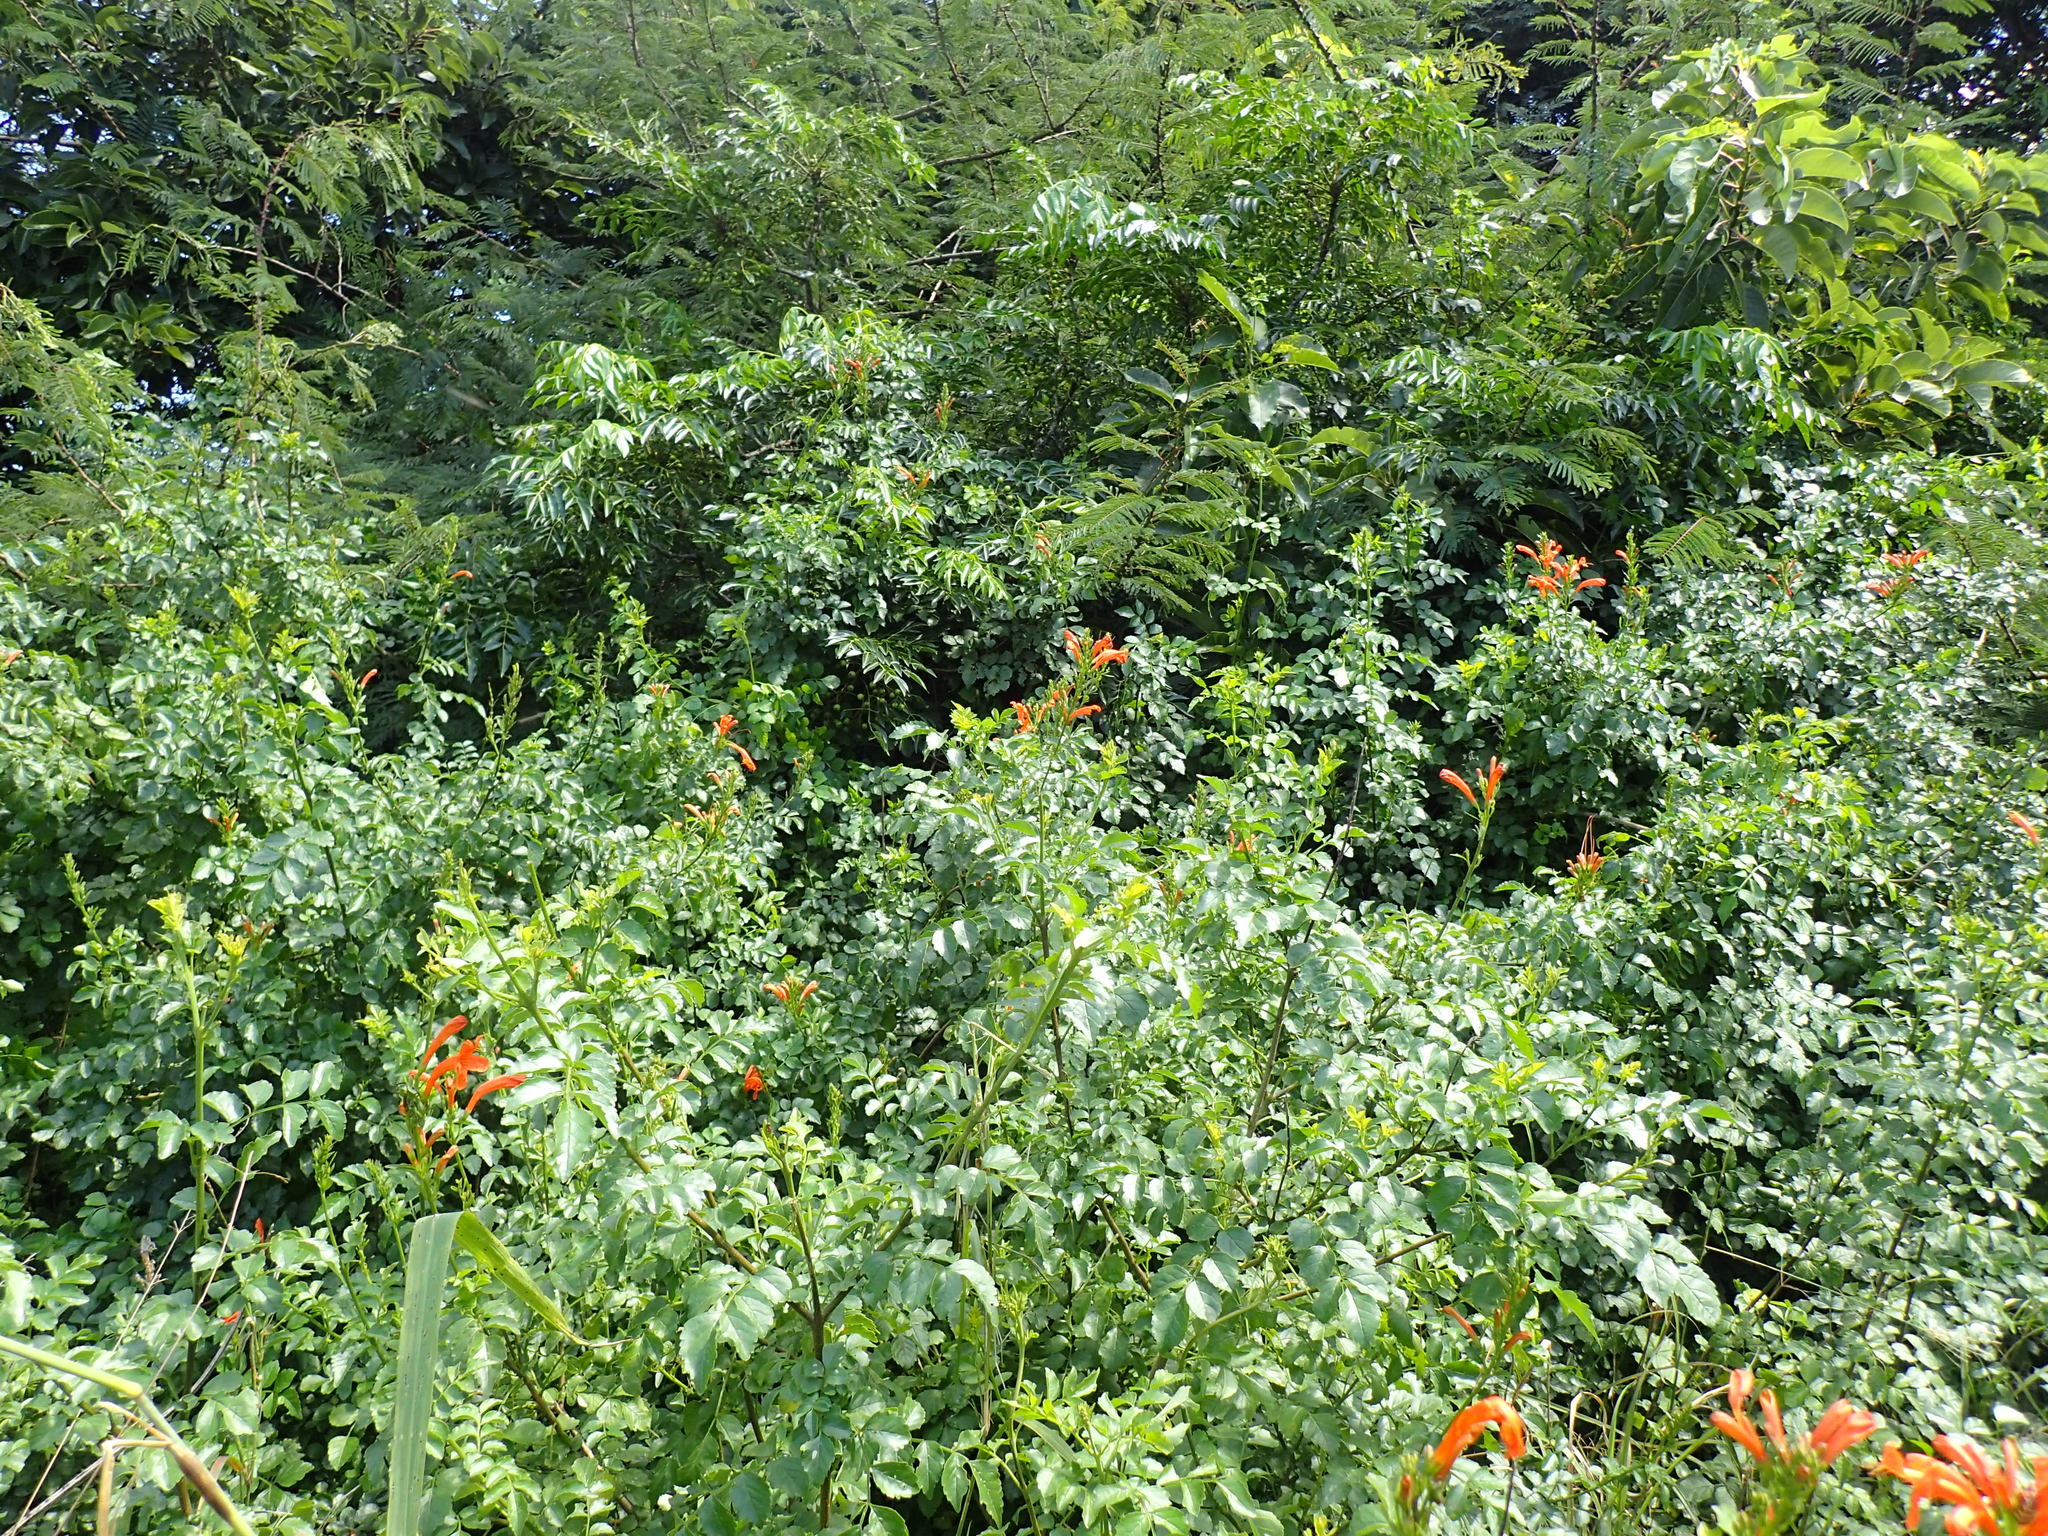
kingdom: Plantae
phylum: Tracheophyta
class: Magnoliopsida
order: Lamiales
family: Bignoniaceae
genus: Tecomaria
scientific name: Tecomaria capensis
